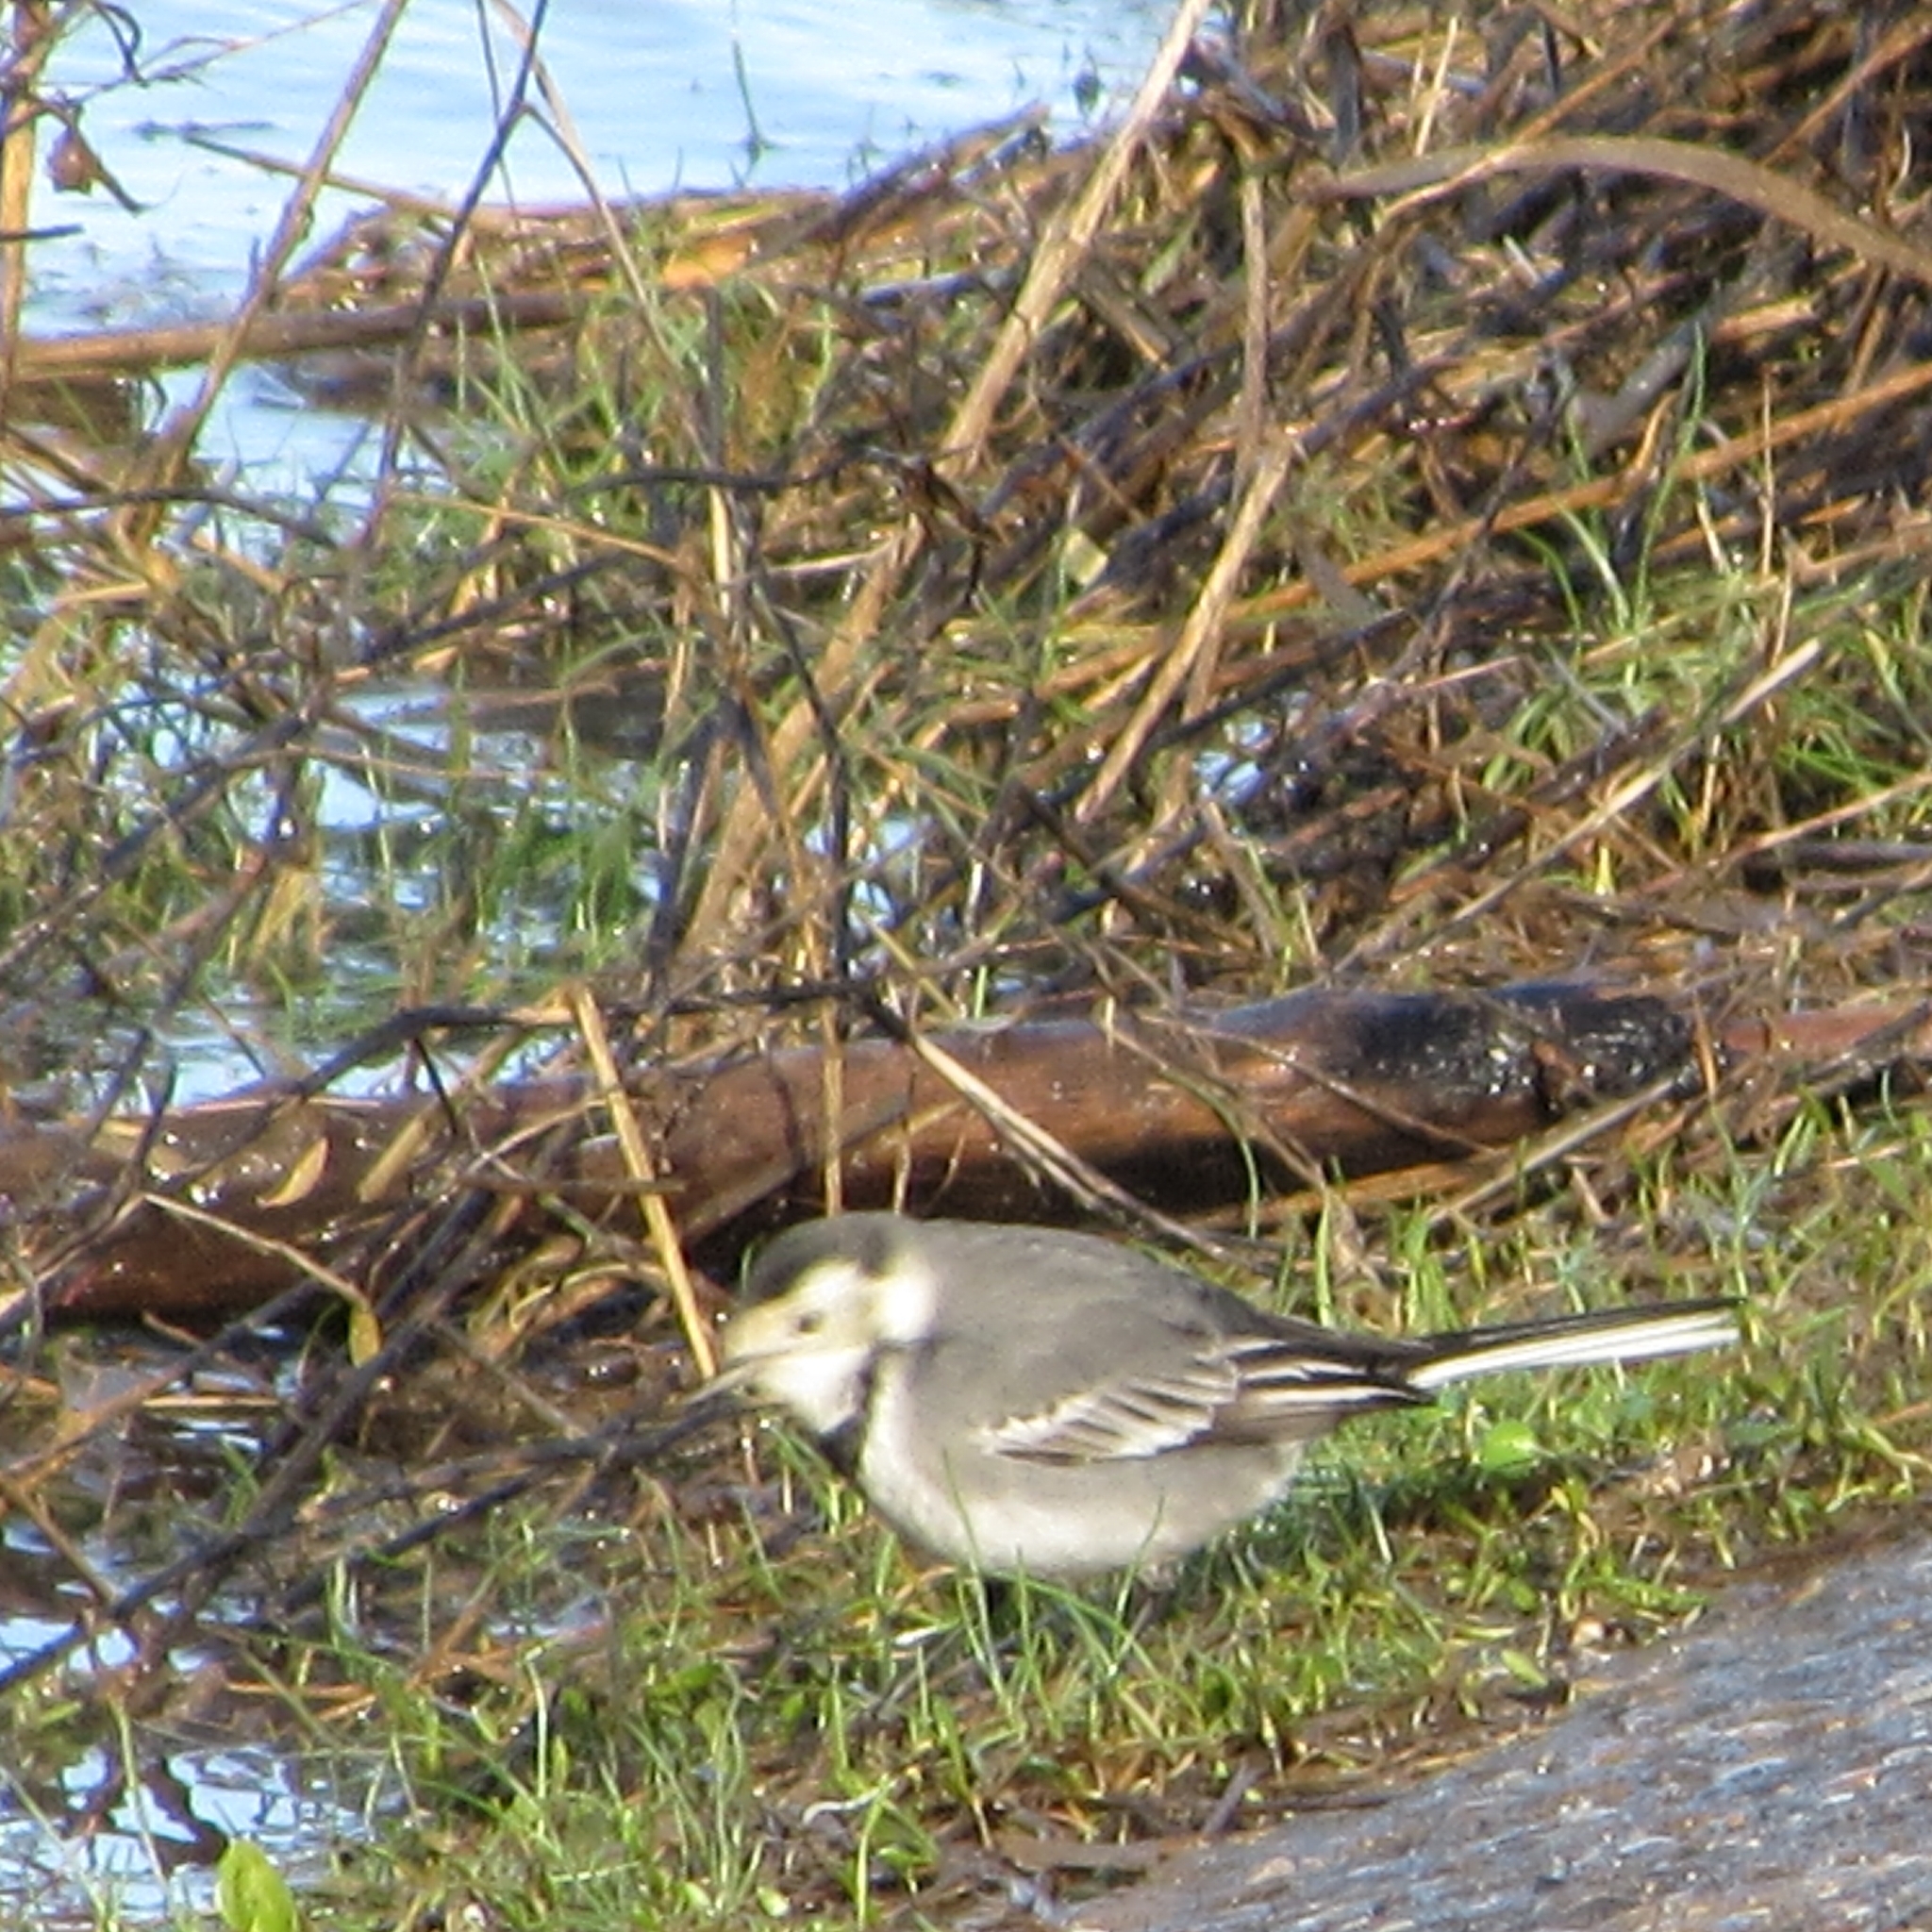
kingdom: Animalia
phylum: Chordata
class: Aves
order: Passeriformes
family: Motacillidae
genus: Motacilla
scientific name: Motacilla alba
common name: White wagtail
